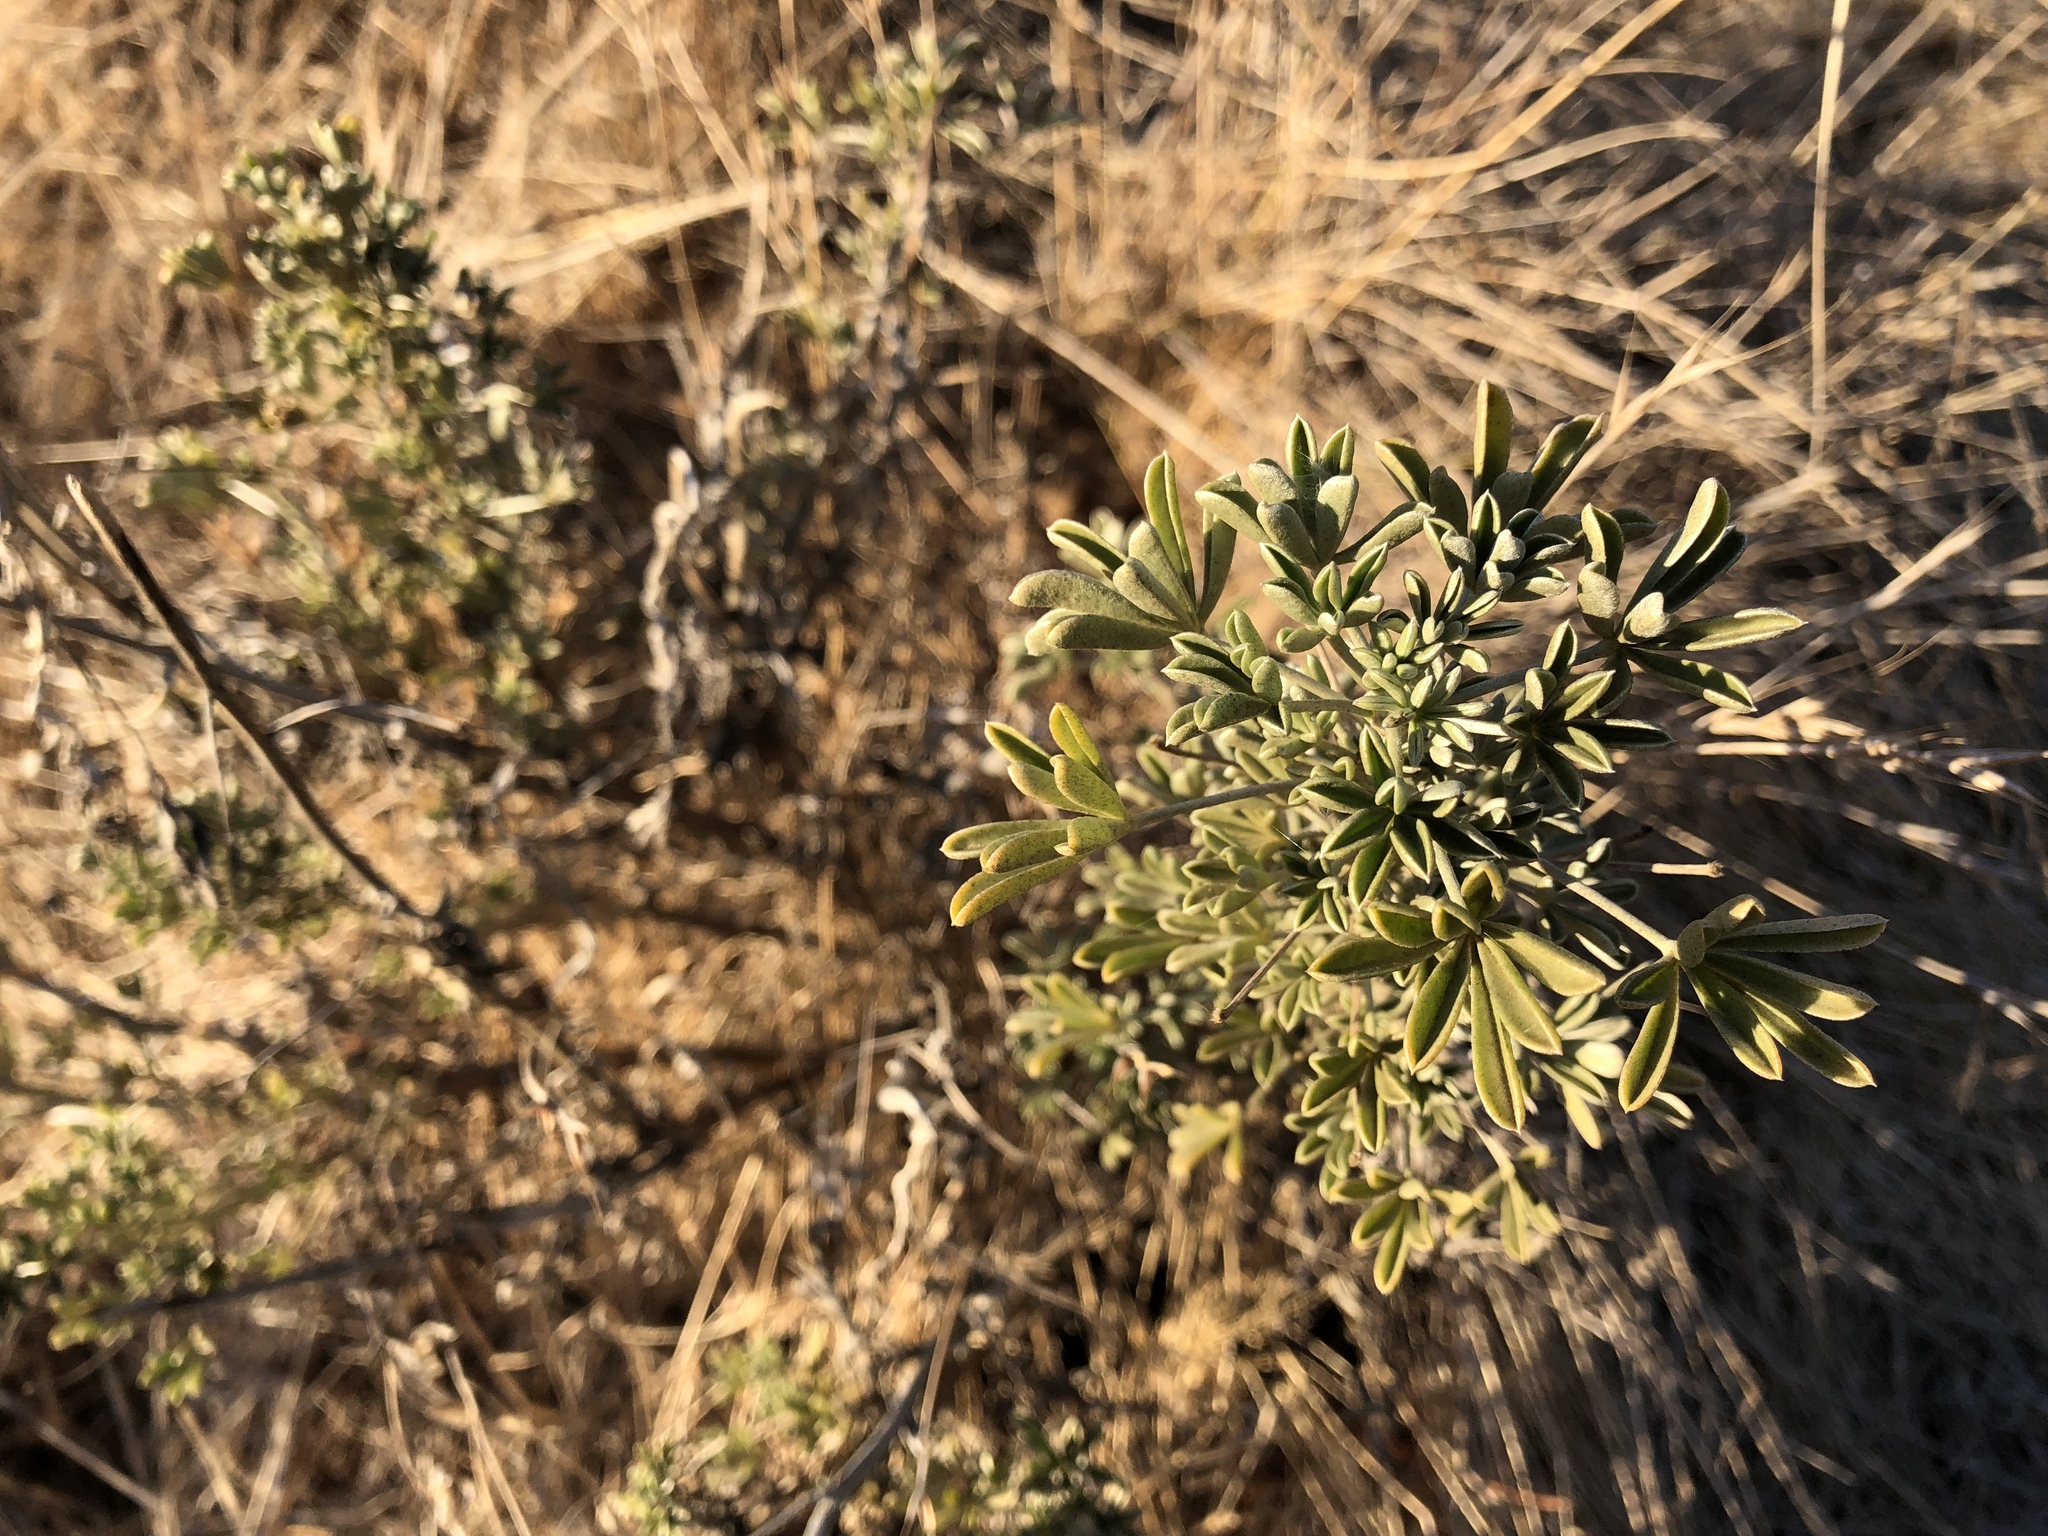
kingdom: Plantae
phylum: Tracheophyta
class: Magnoliopsida
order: Fabales
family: Fabaceae
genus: Lupinus
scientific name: Lupinus albifrons
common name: Foothill lupine
